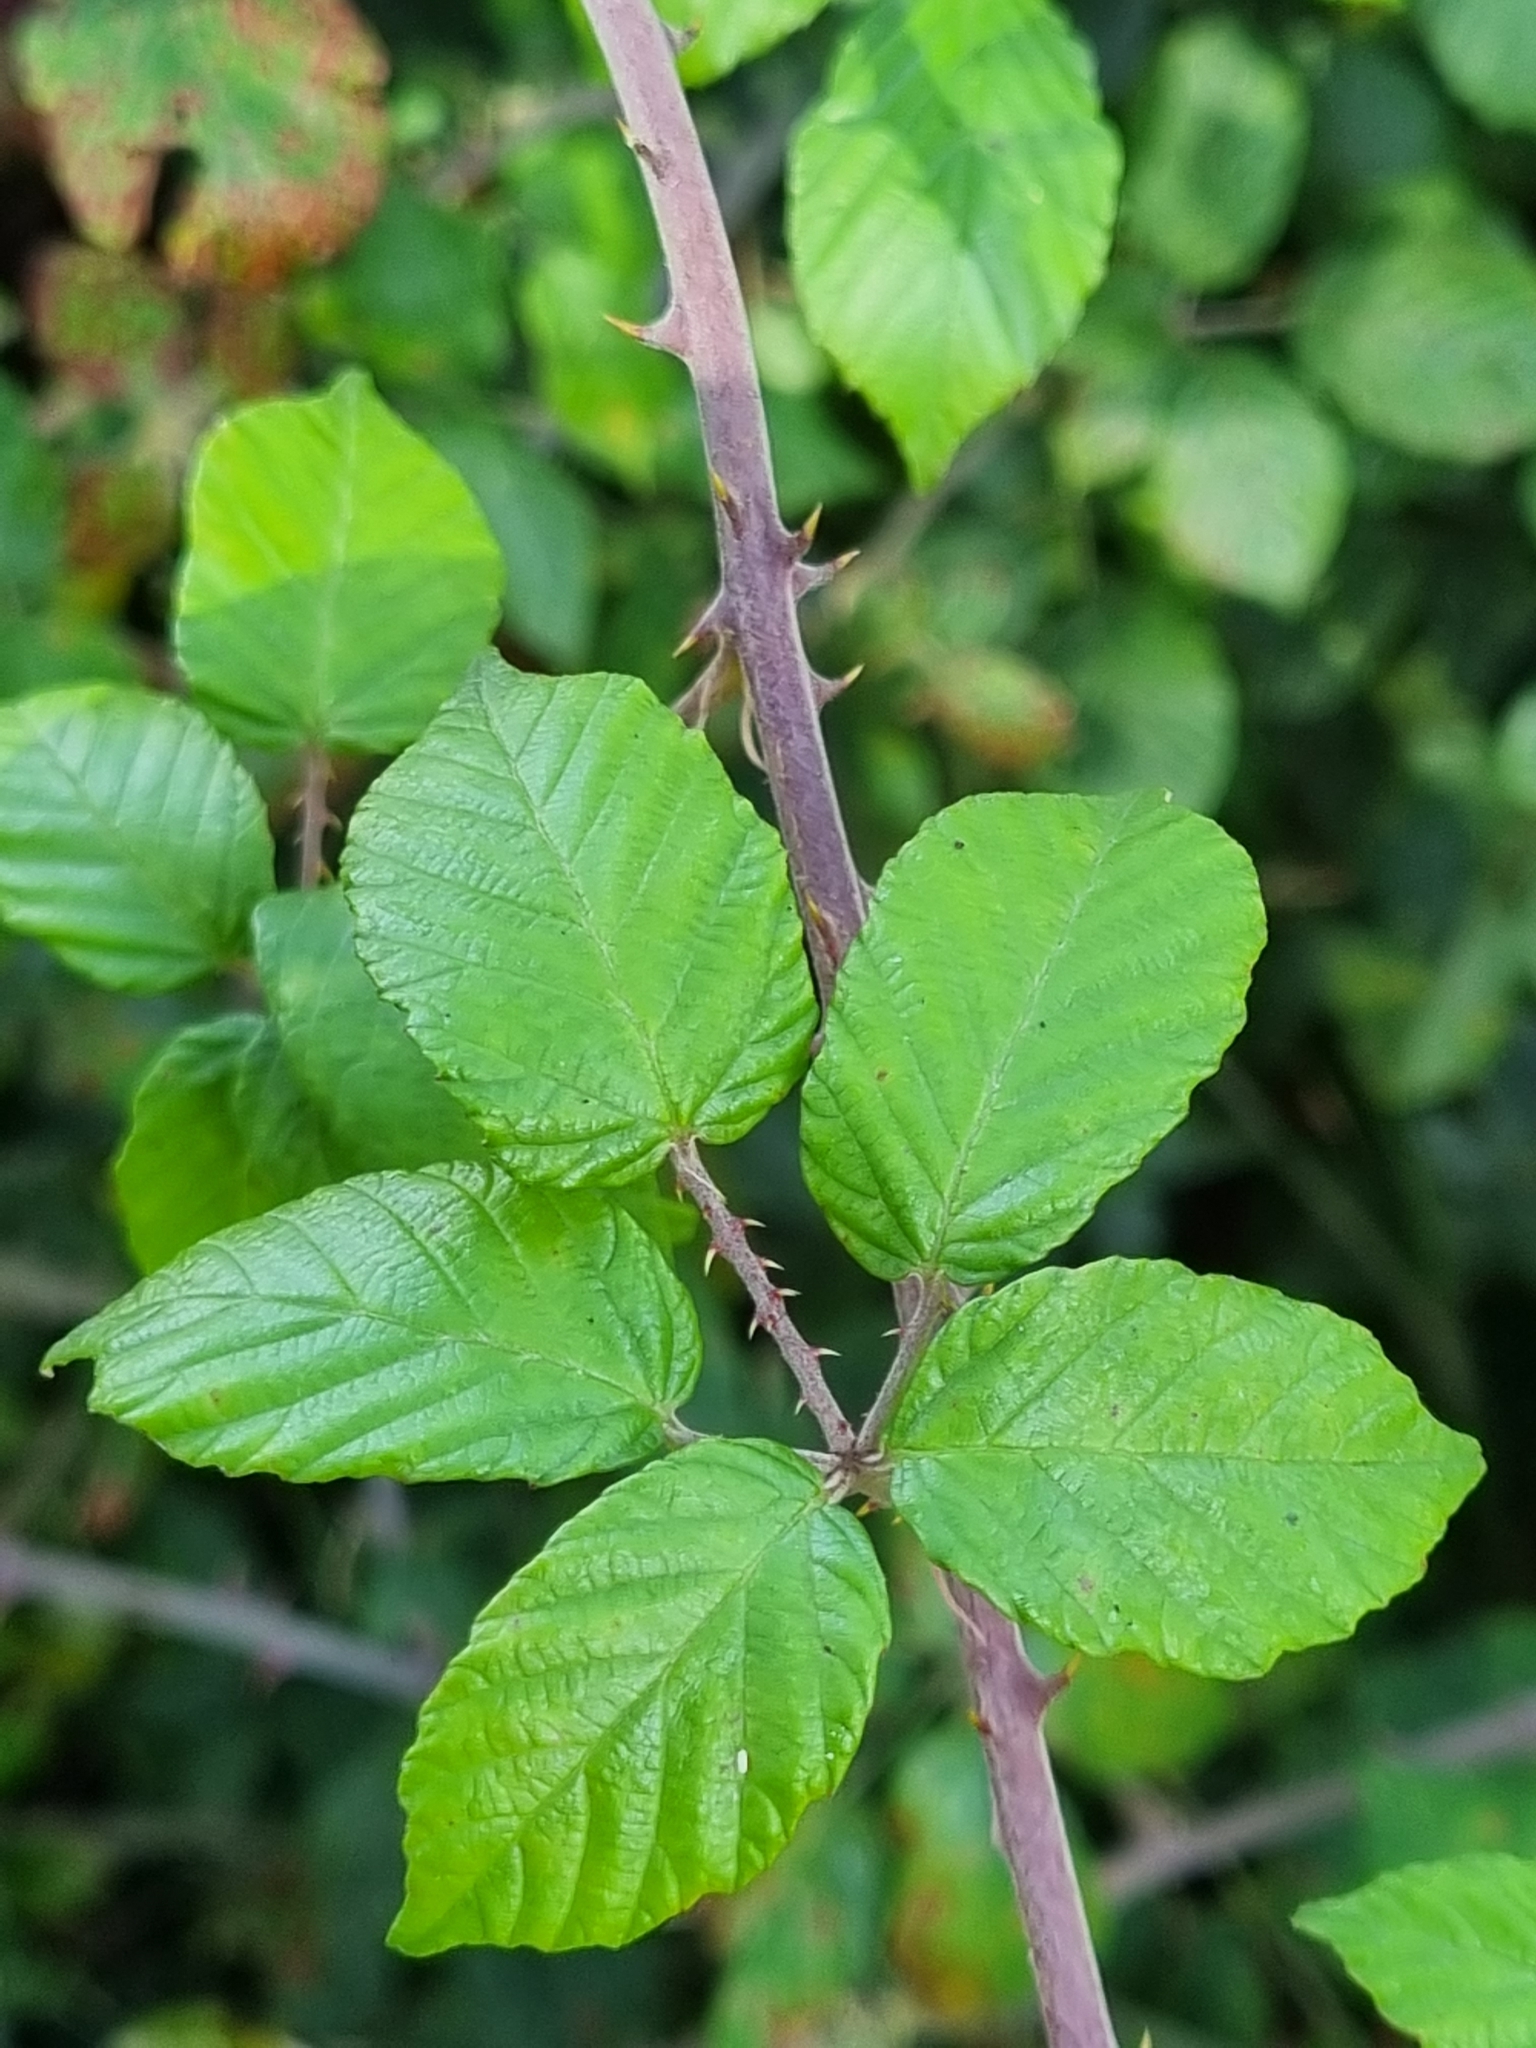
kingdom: Plantae
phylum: Tracheophyta
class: Magnoliopsida
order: Rosales
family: Rosaceae
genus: Rubus
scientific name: Rubus ulmifolius
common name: Elmleaf blackberry
